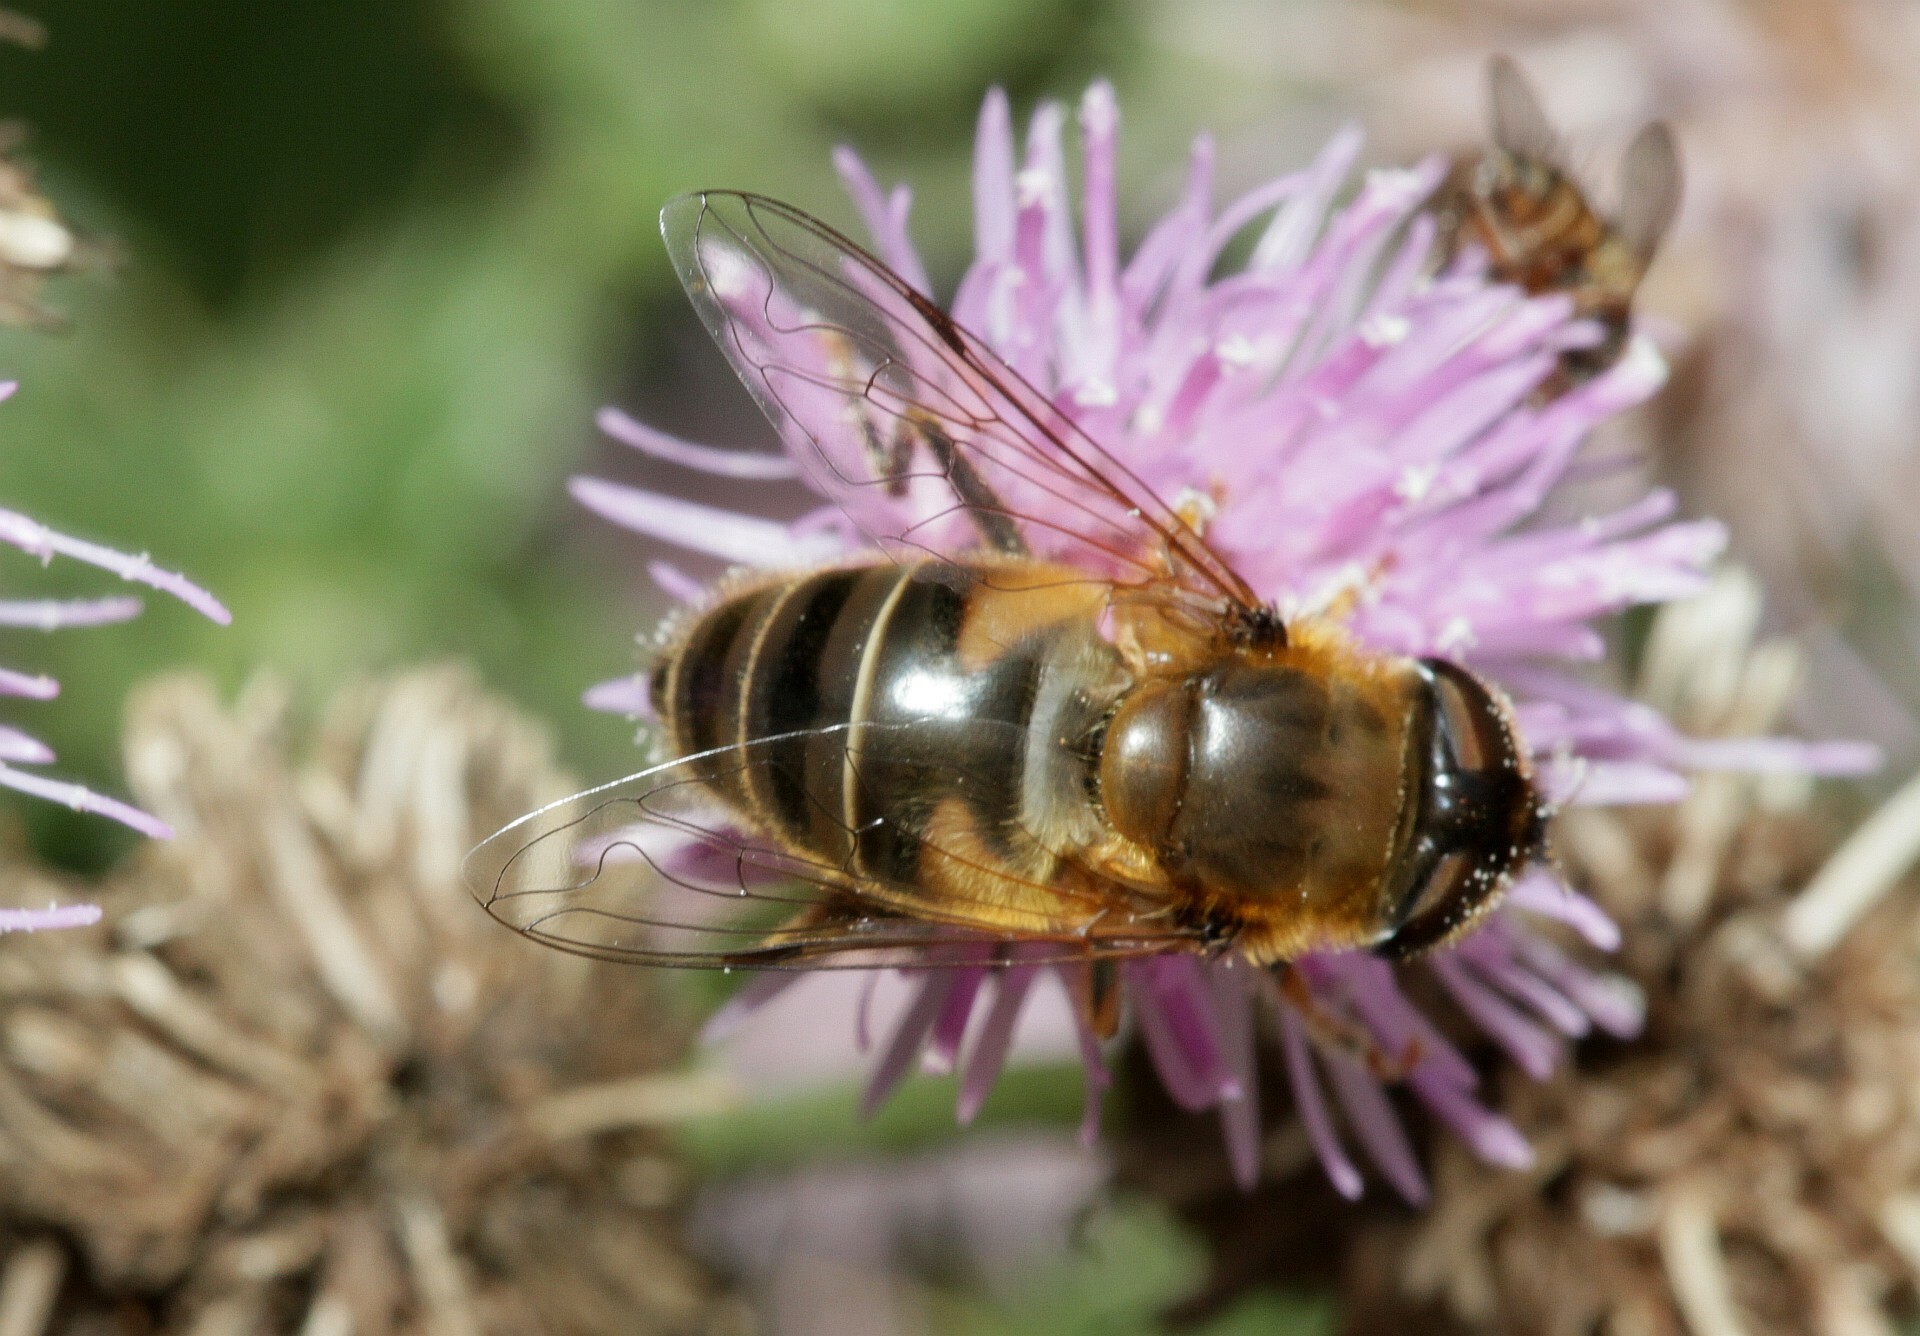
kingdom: Animalia
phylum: Arthropoda
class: Insecta
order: Diptera
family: Syrphidae
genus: Eristalis
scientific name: Eristalis pertinax
